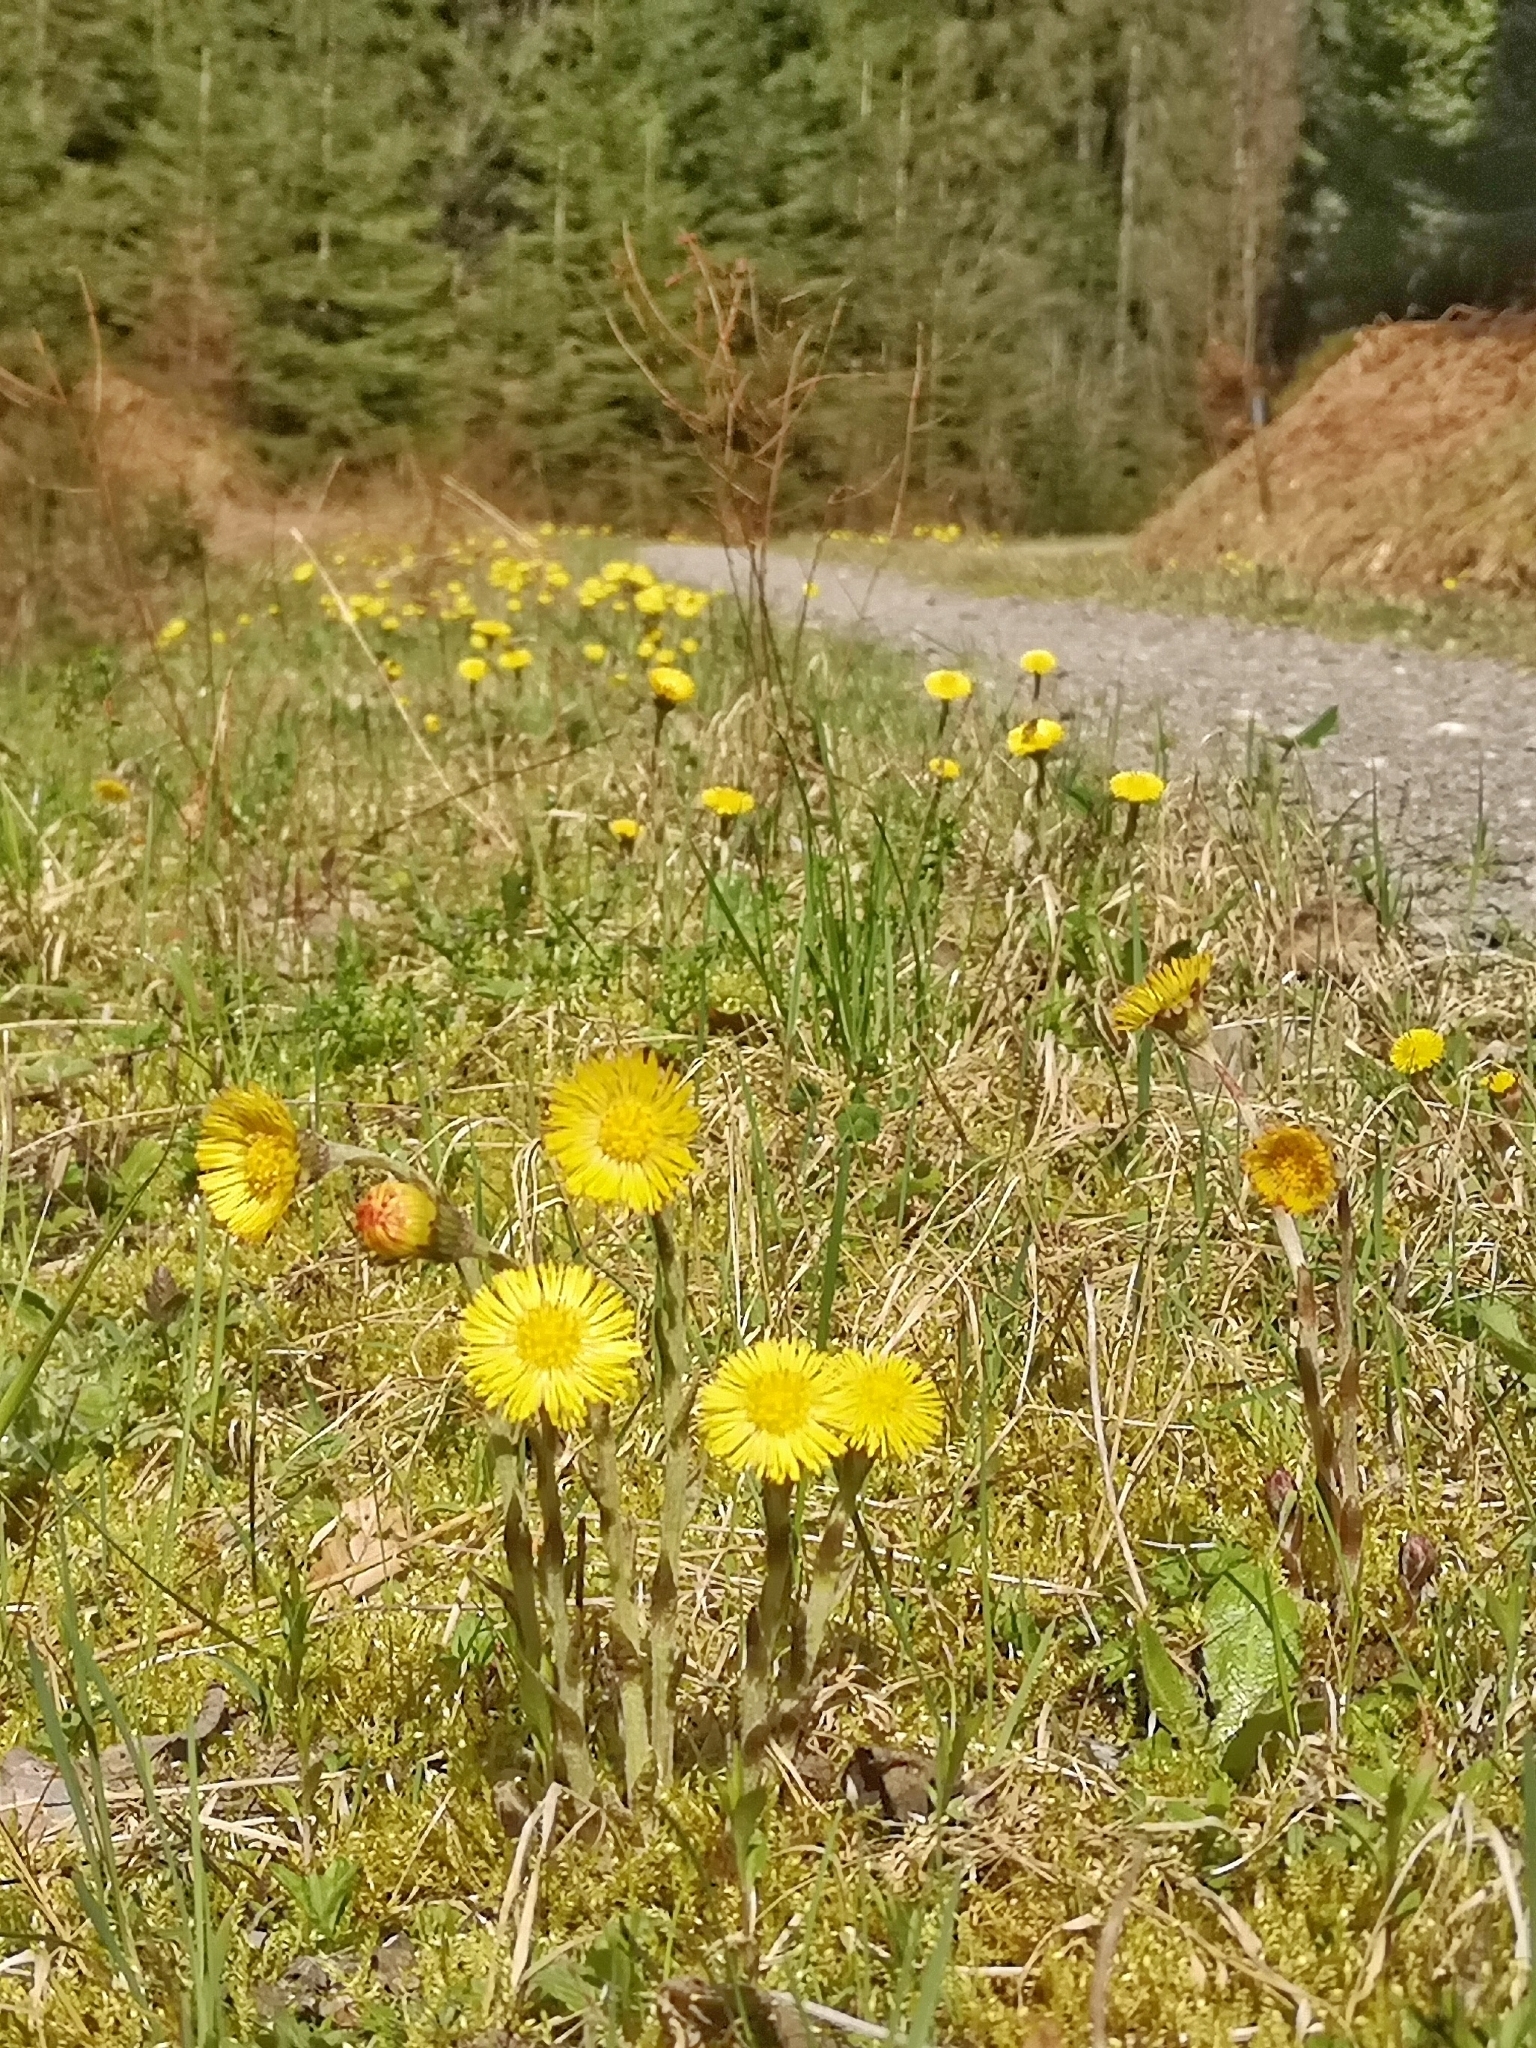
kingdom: Plantae
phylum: Tracheophyta
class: Magnoliopsida
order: Asterales
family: Asteraceae
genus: Tussilago
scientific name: Tussilago farfara
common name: Coltsfoot
